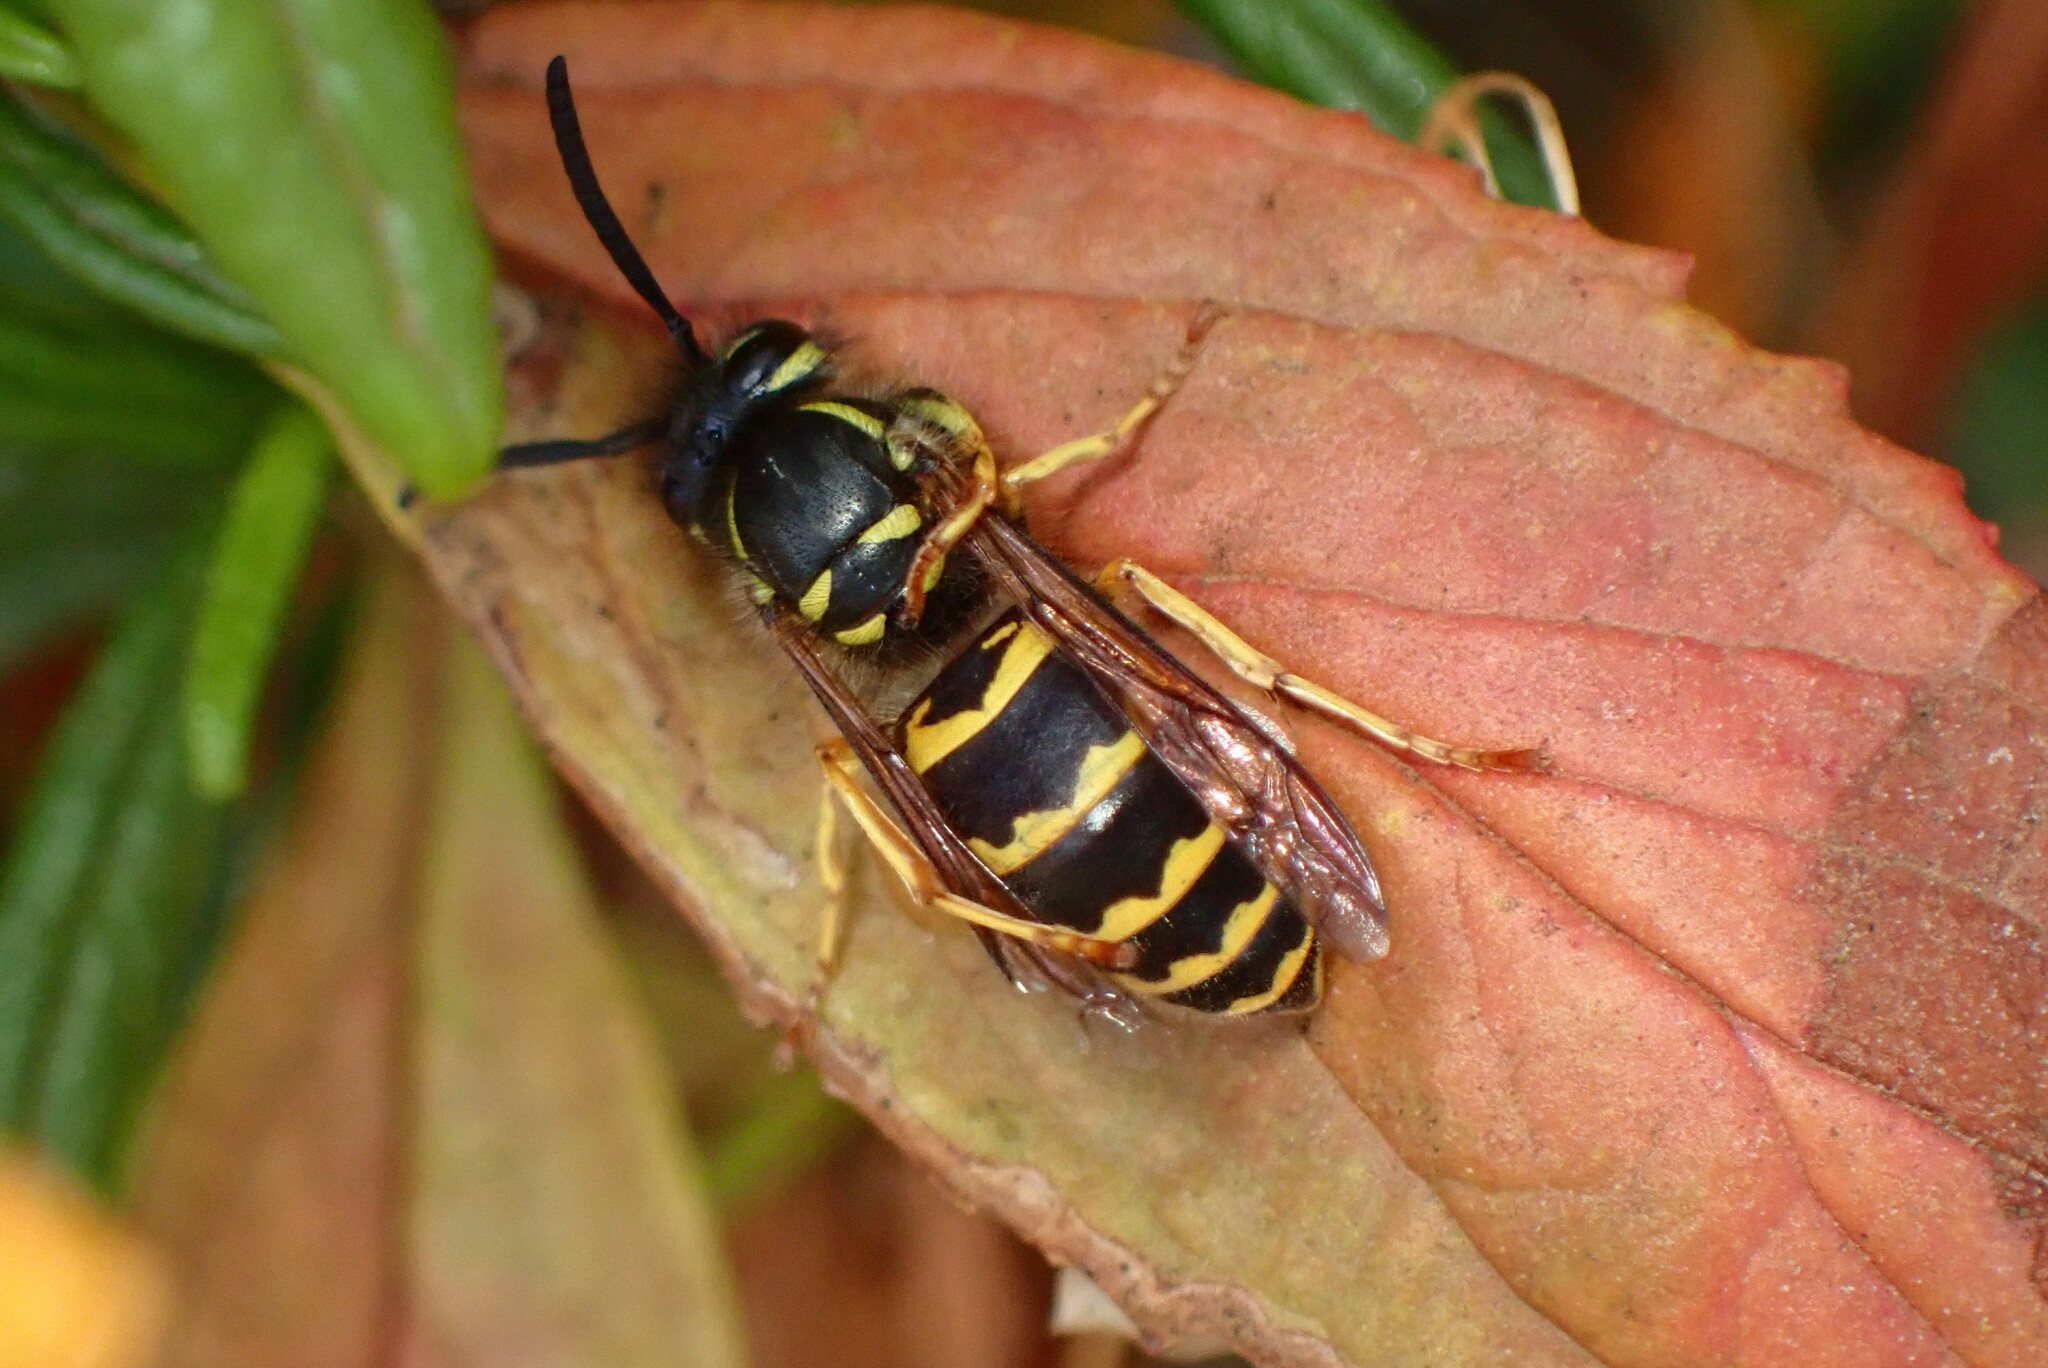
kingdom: Animalia
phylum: Arthropoda
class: Insecta
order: Hymenoptera
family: Vespidae
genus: Vespula
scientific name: Vespula alascensis
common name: Alaska yellowjacket
